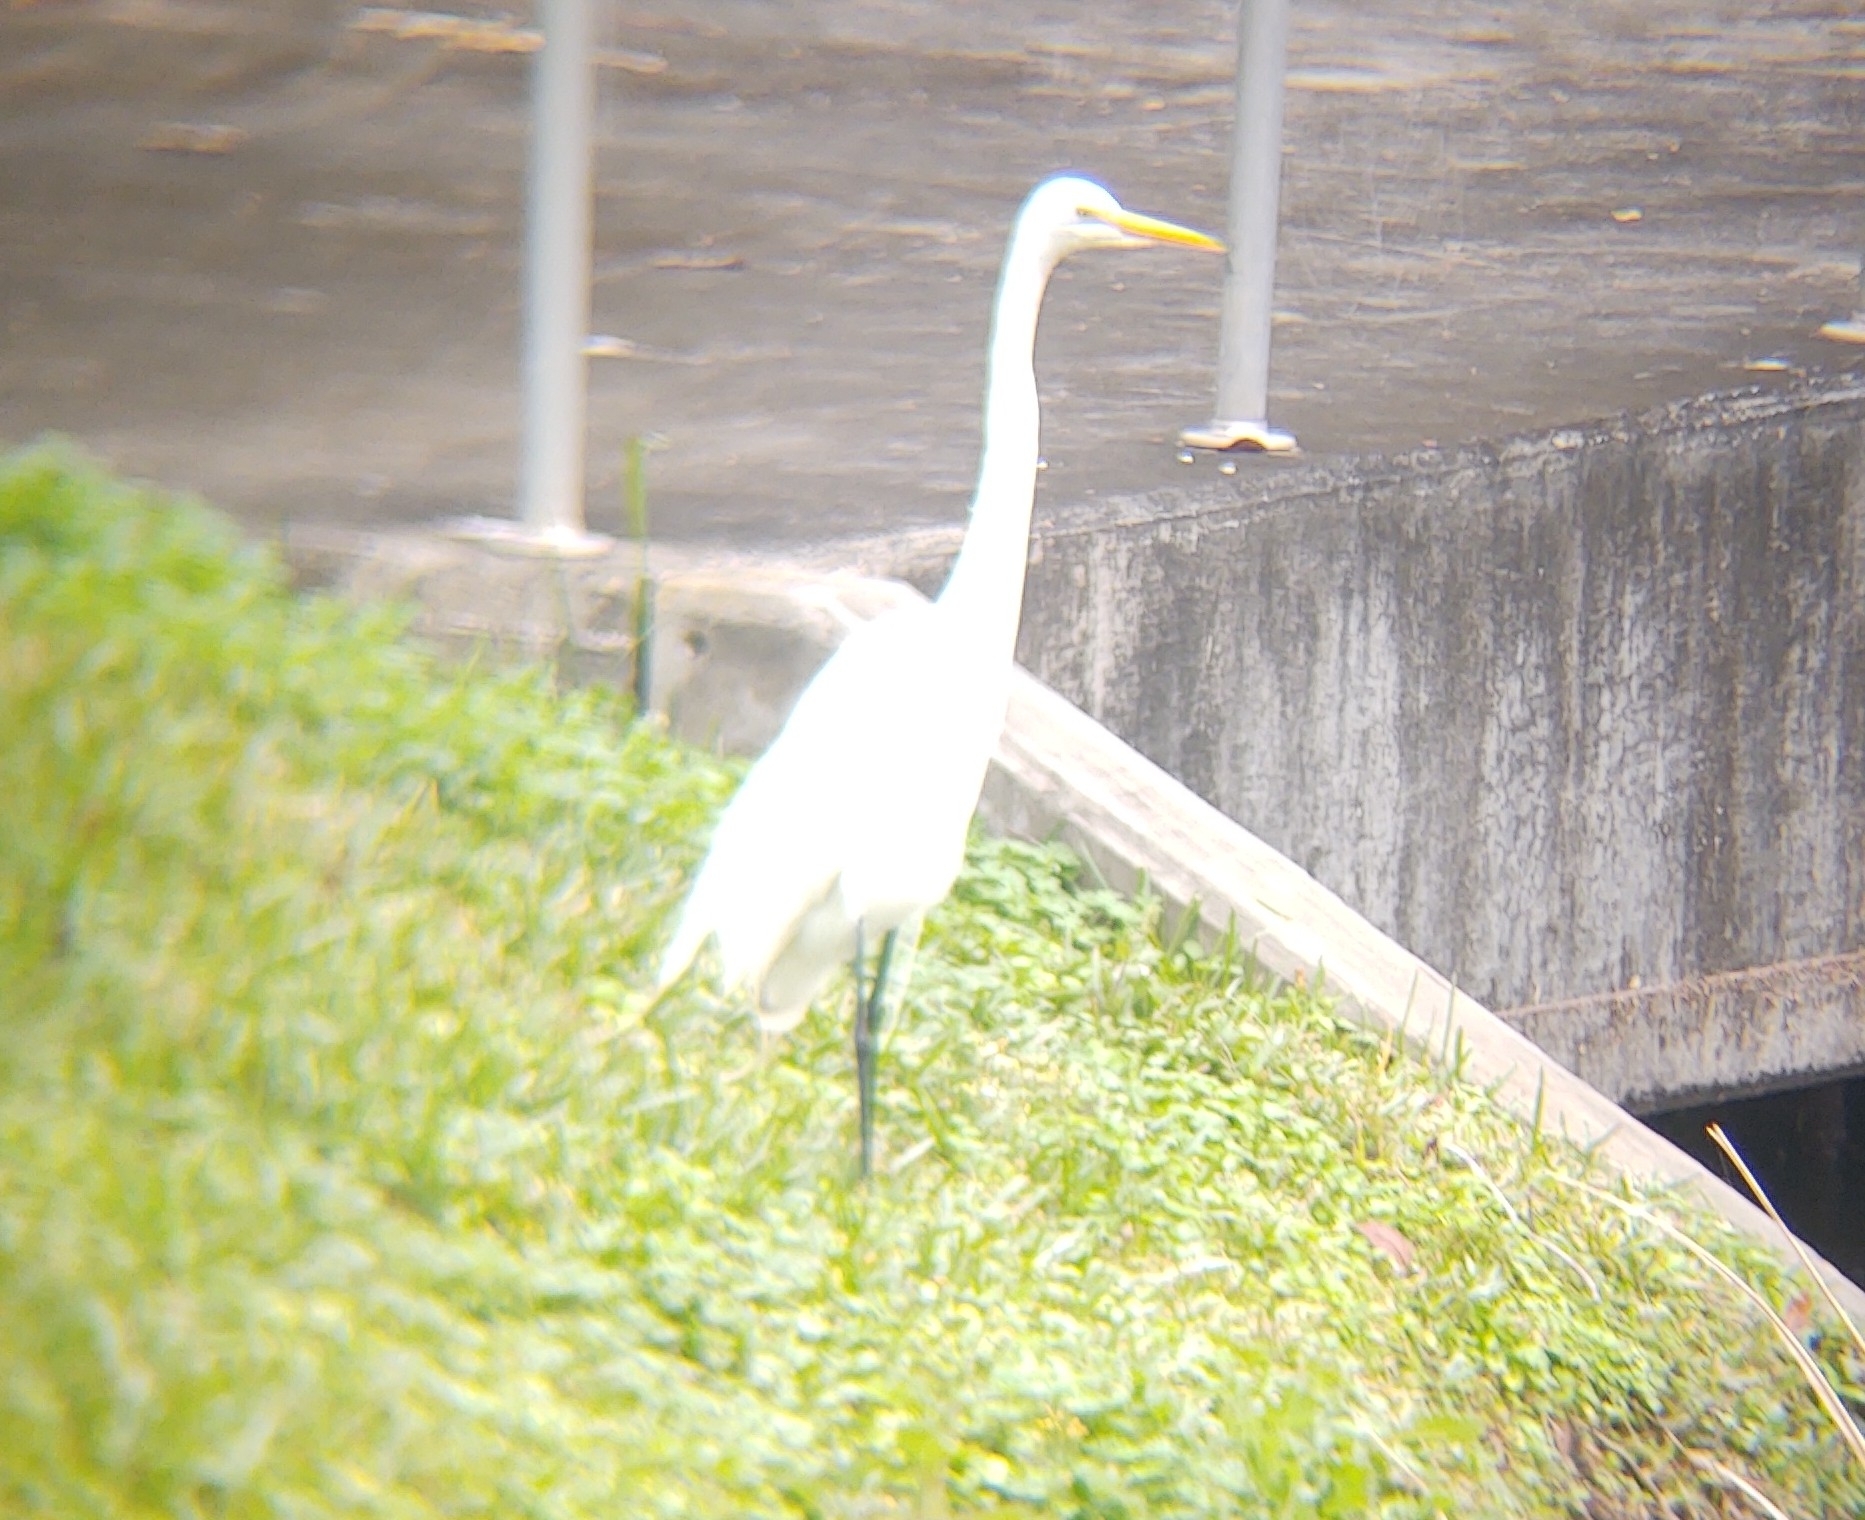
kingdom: Animalia
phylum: Chordata
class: Aves
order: Pelecaniformes
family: Ardeidae
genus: Ardea
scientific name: Ardea alba
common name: Great egret
